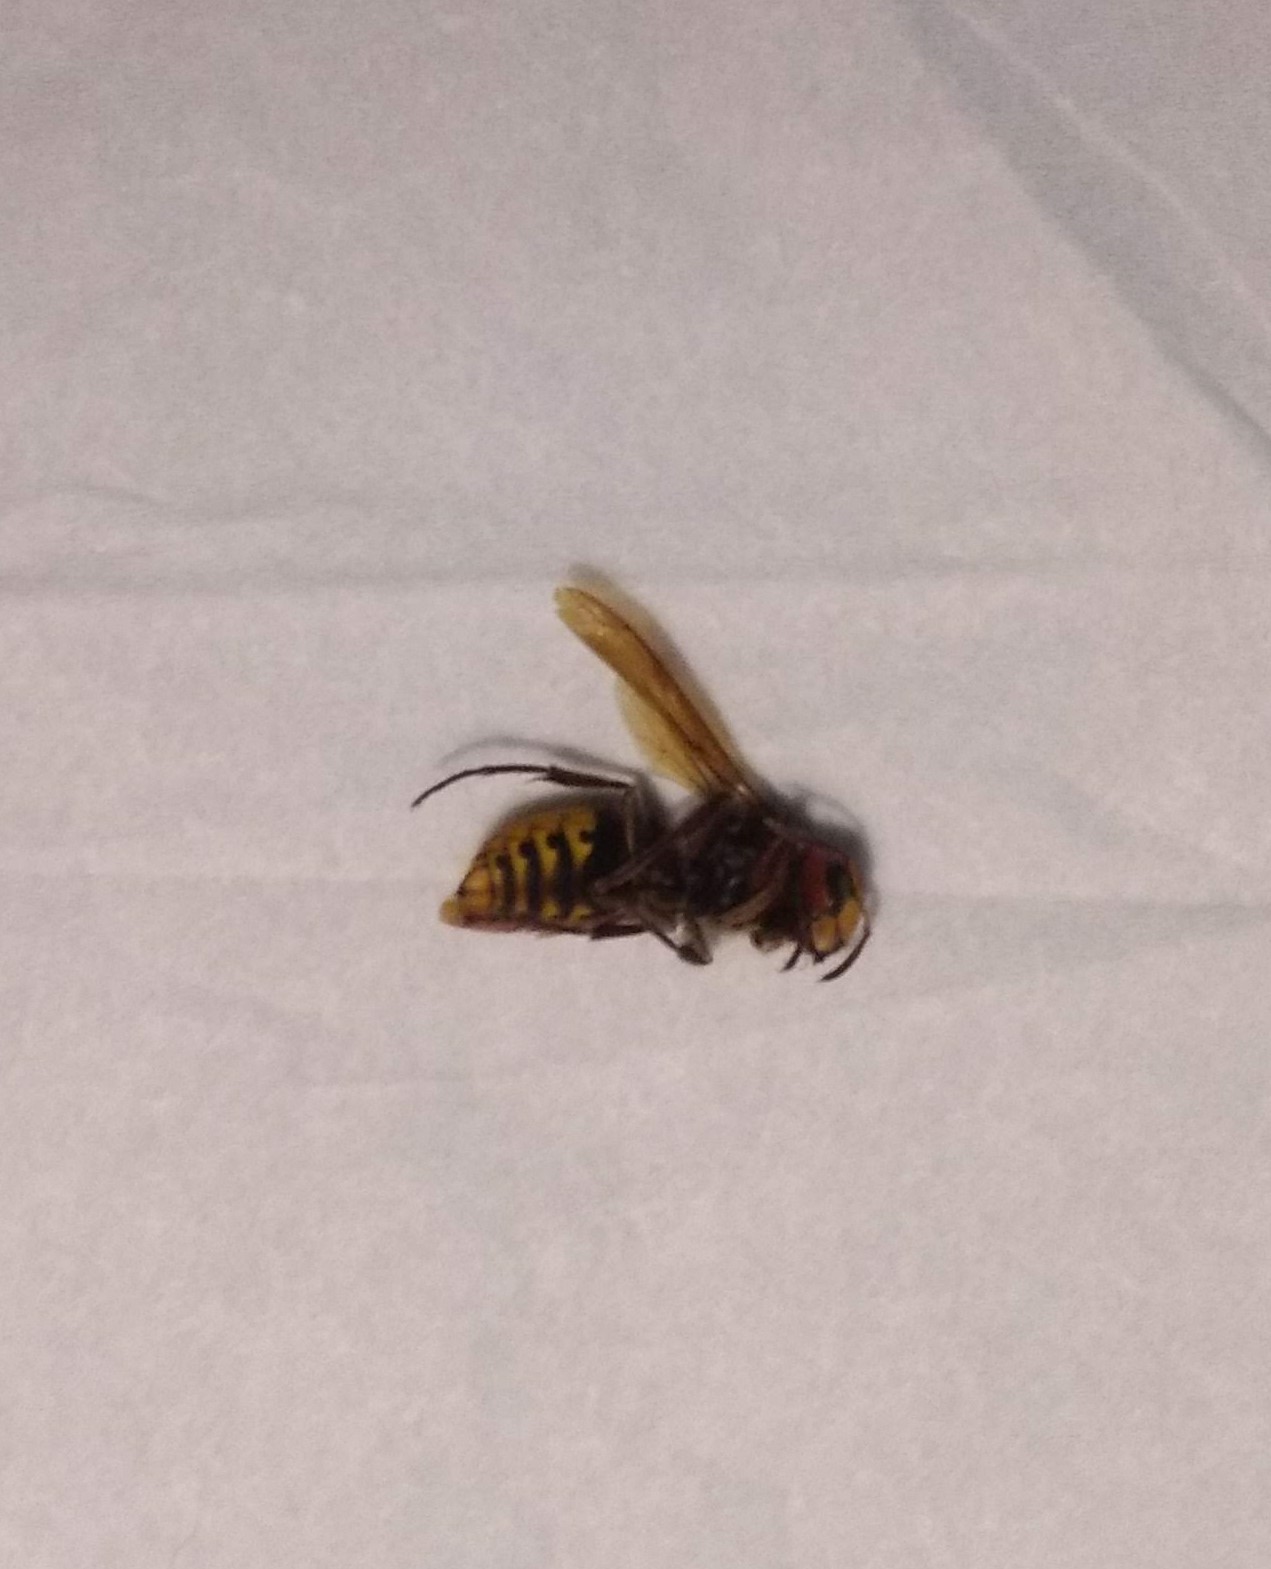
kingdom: Animalia
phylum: Arthropoda
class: Insecta
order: Hymenoptera
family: Vespidae
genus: Vespa
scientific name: Vespa crabro
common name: Hornet
